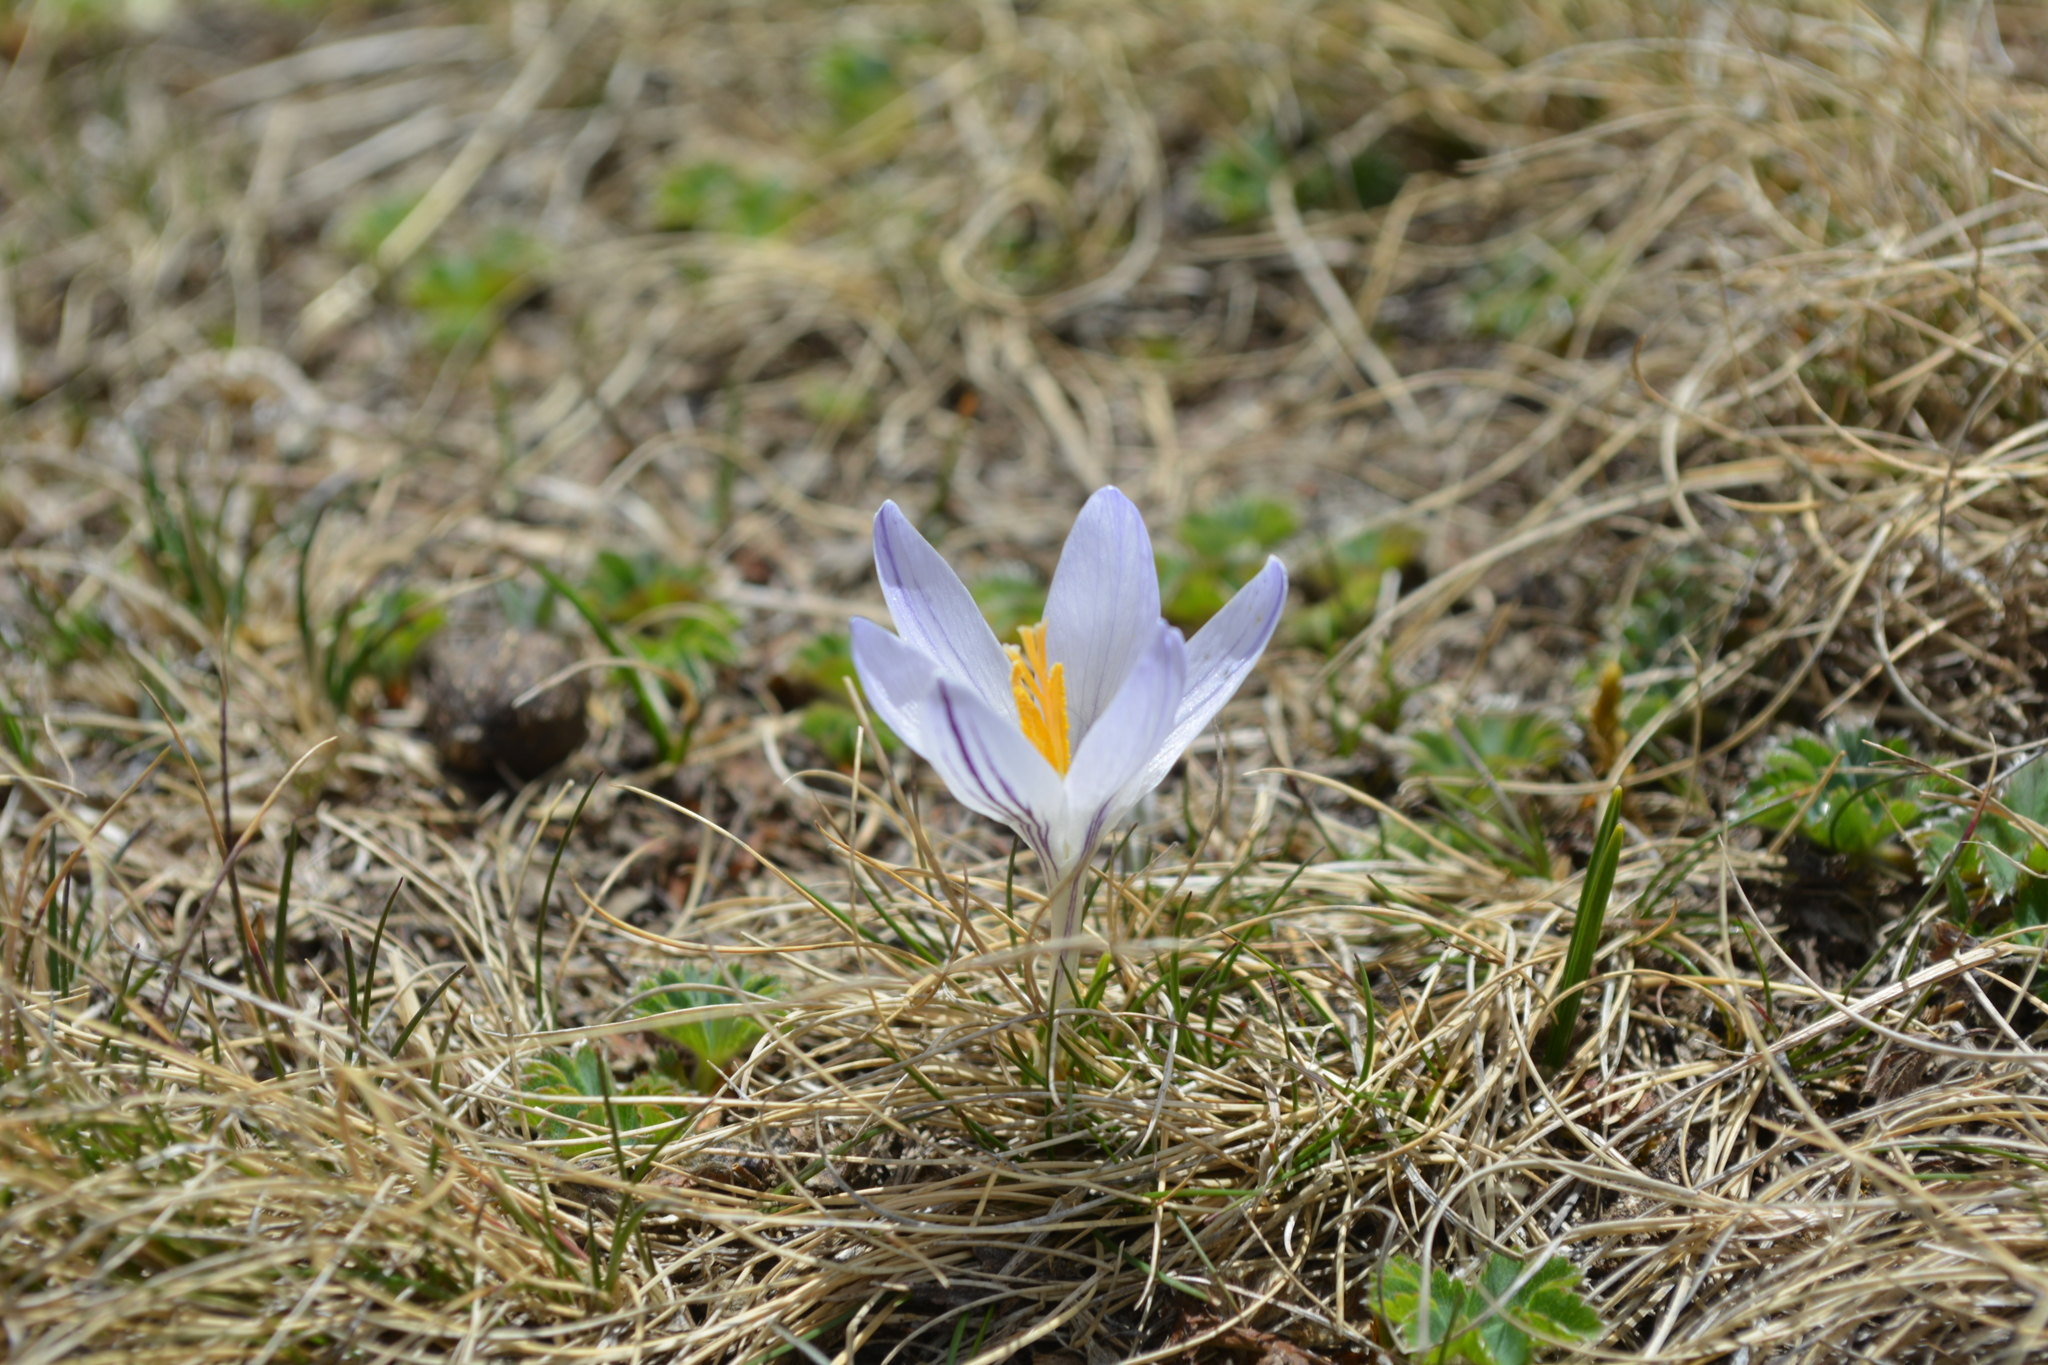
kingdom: Plantae
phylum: Tracheophyta
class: Liliopsida
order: Asparagales
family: Iridaceae
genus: Crocus
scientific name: Crocus reticulatus
